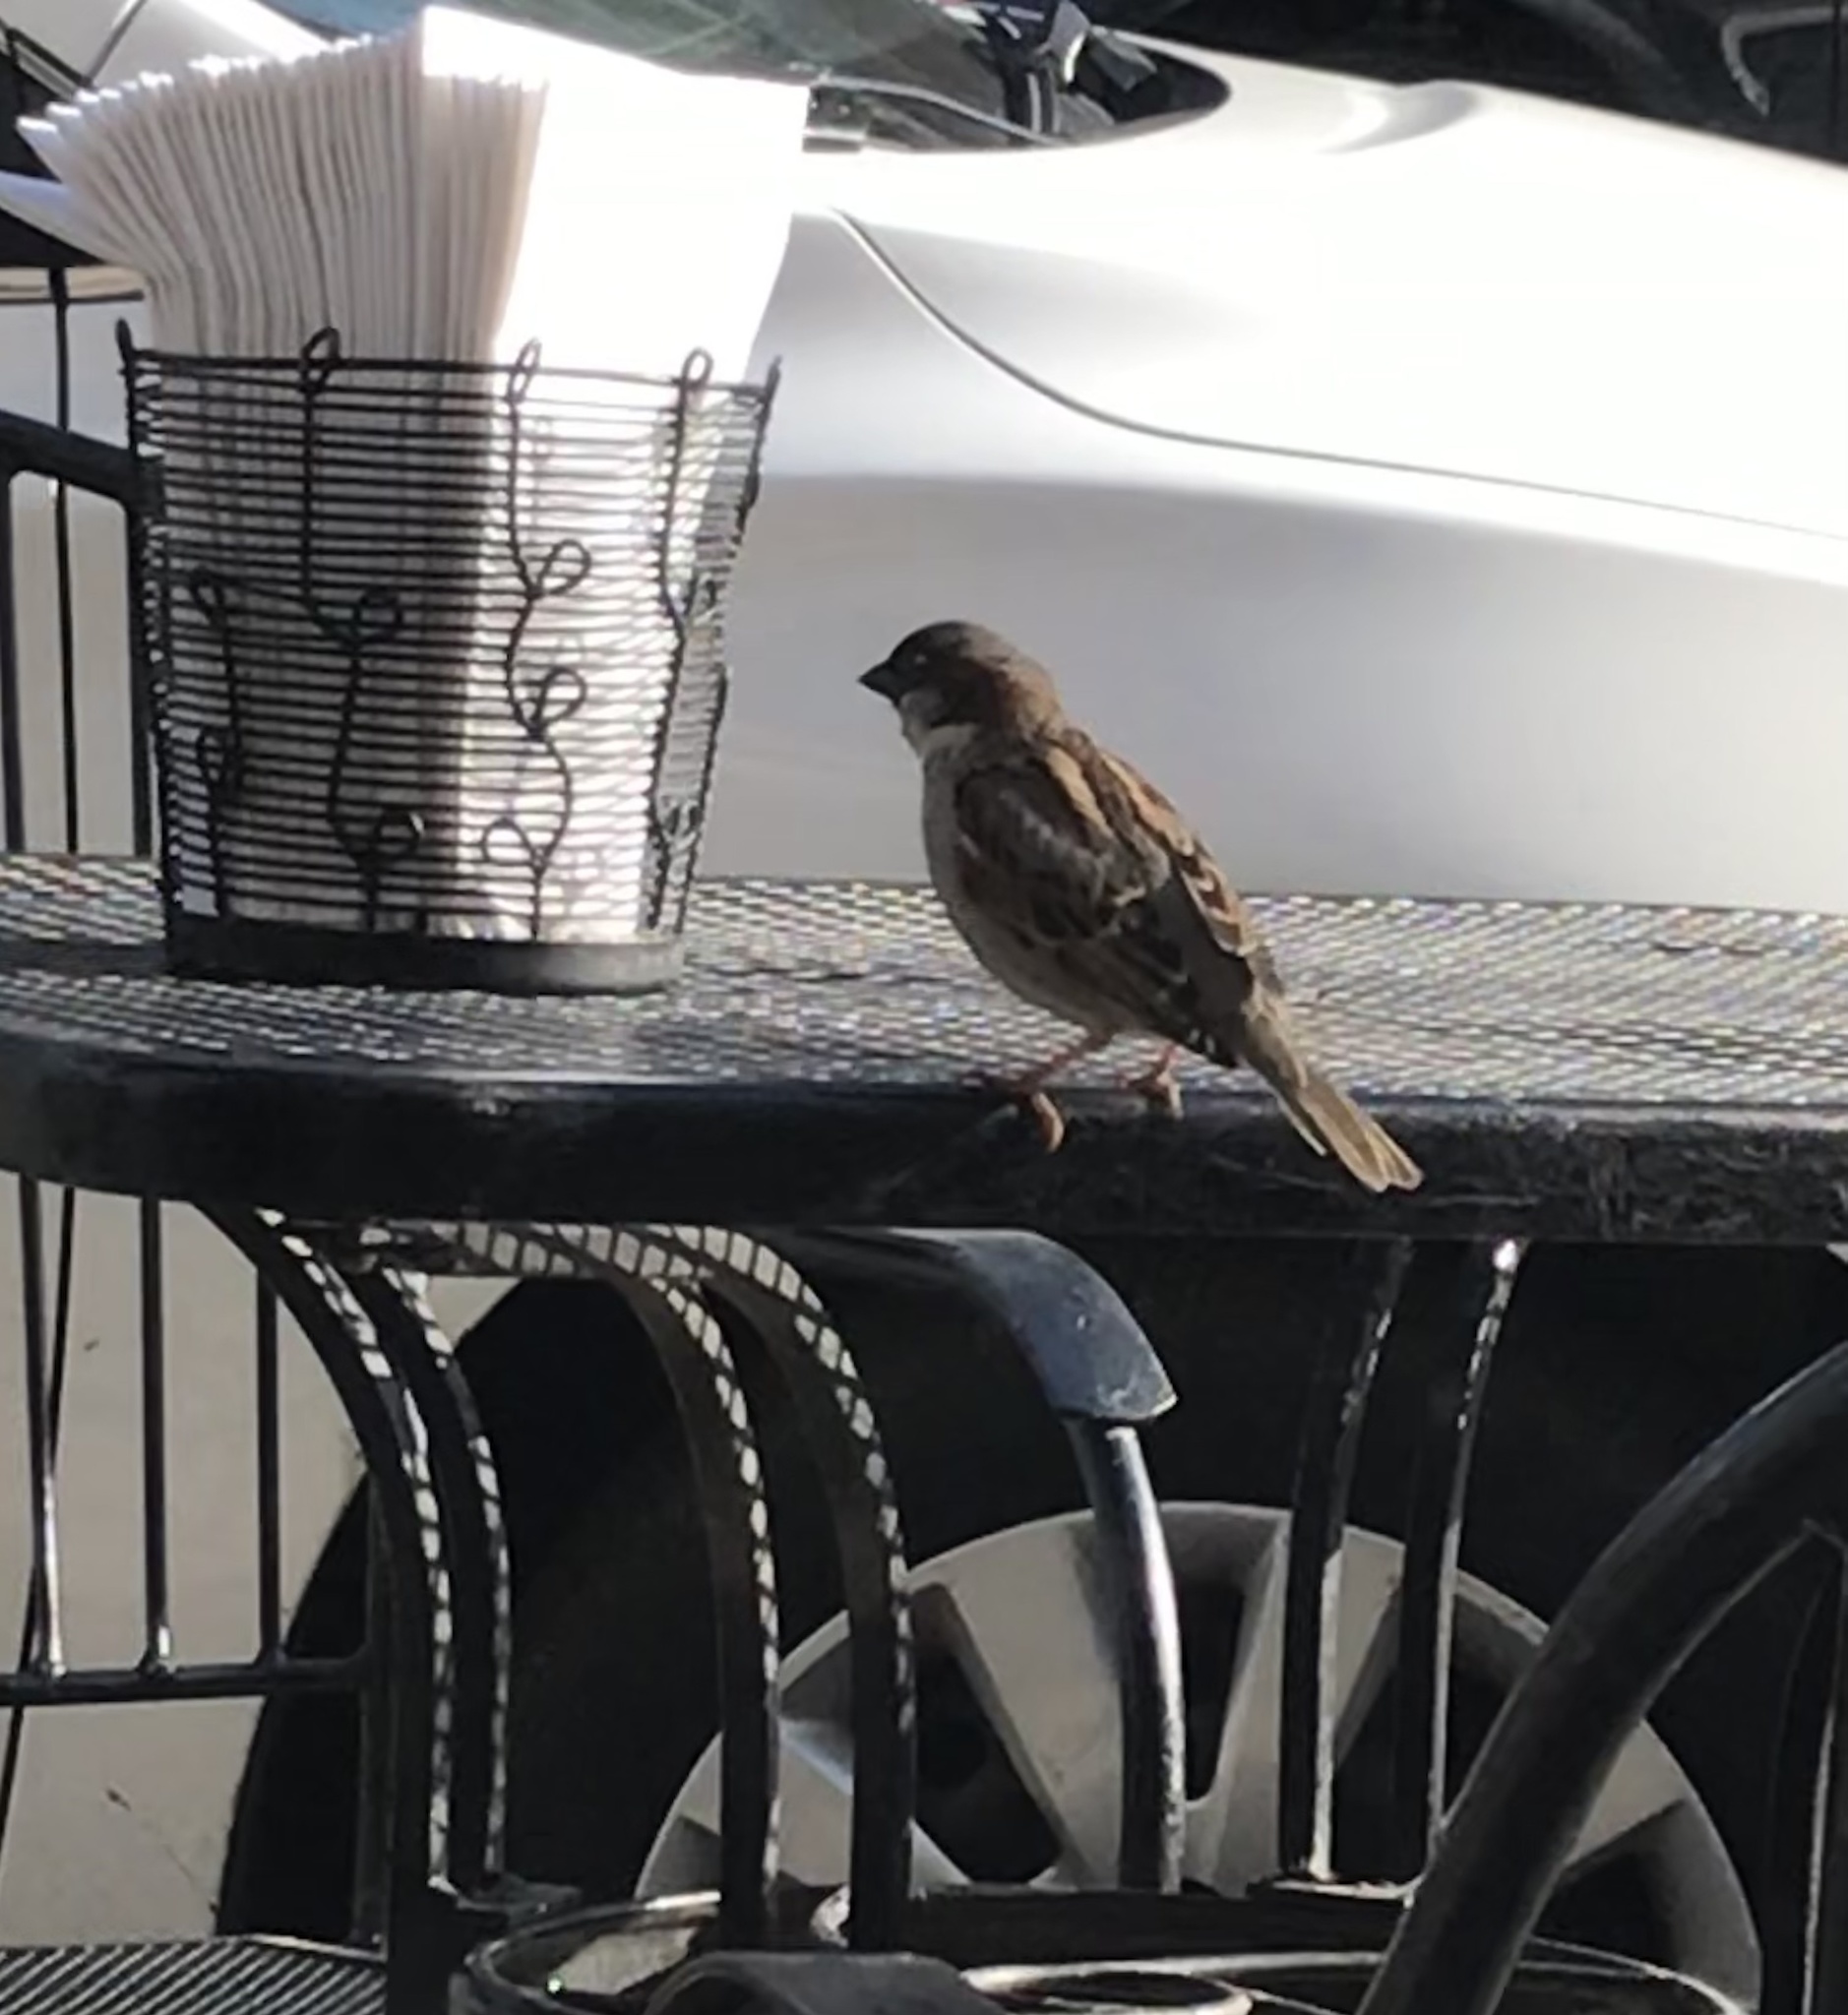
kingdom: Animalia
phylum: Chordata
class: Aves
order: Passeriformes
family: Passeridae
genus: Passer
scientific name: Passer domesticus
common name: House sparrow
